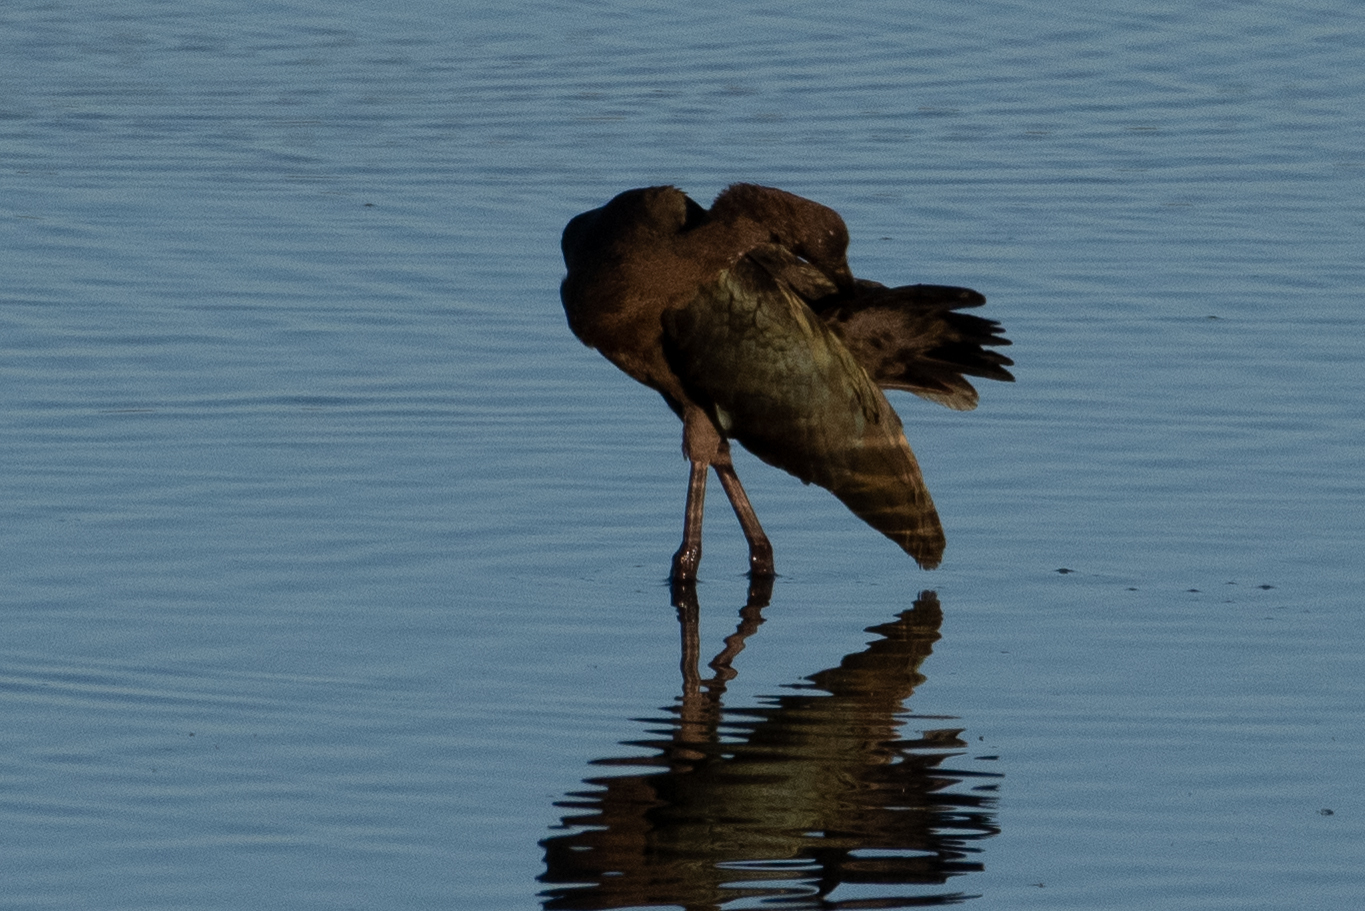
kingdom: Animalia
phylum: Chordata
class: Aves
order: Pelecaniformes
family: Threskiornithidae
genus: Plegadis
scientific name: Plegadis chihi
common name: White-faced ibis
